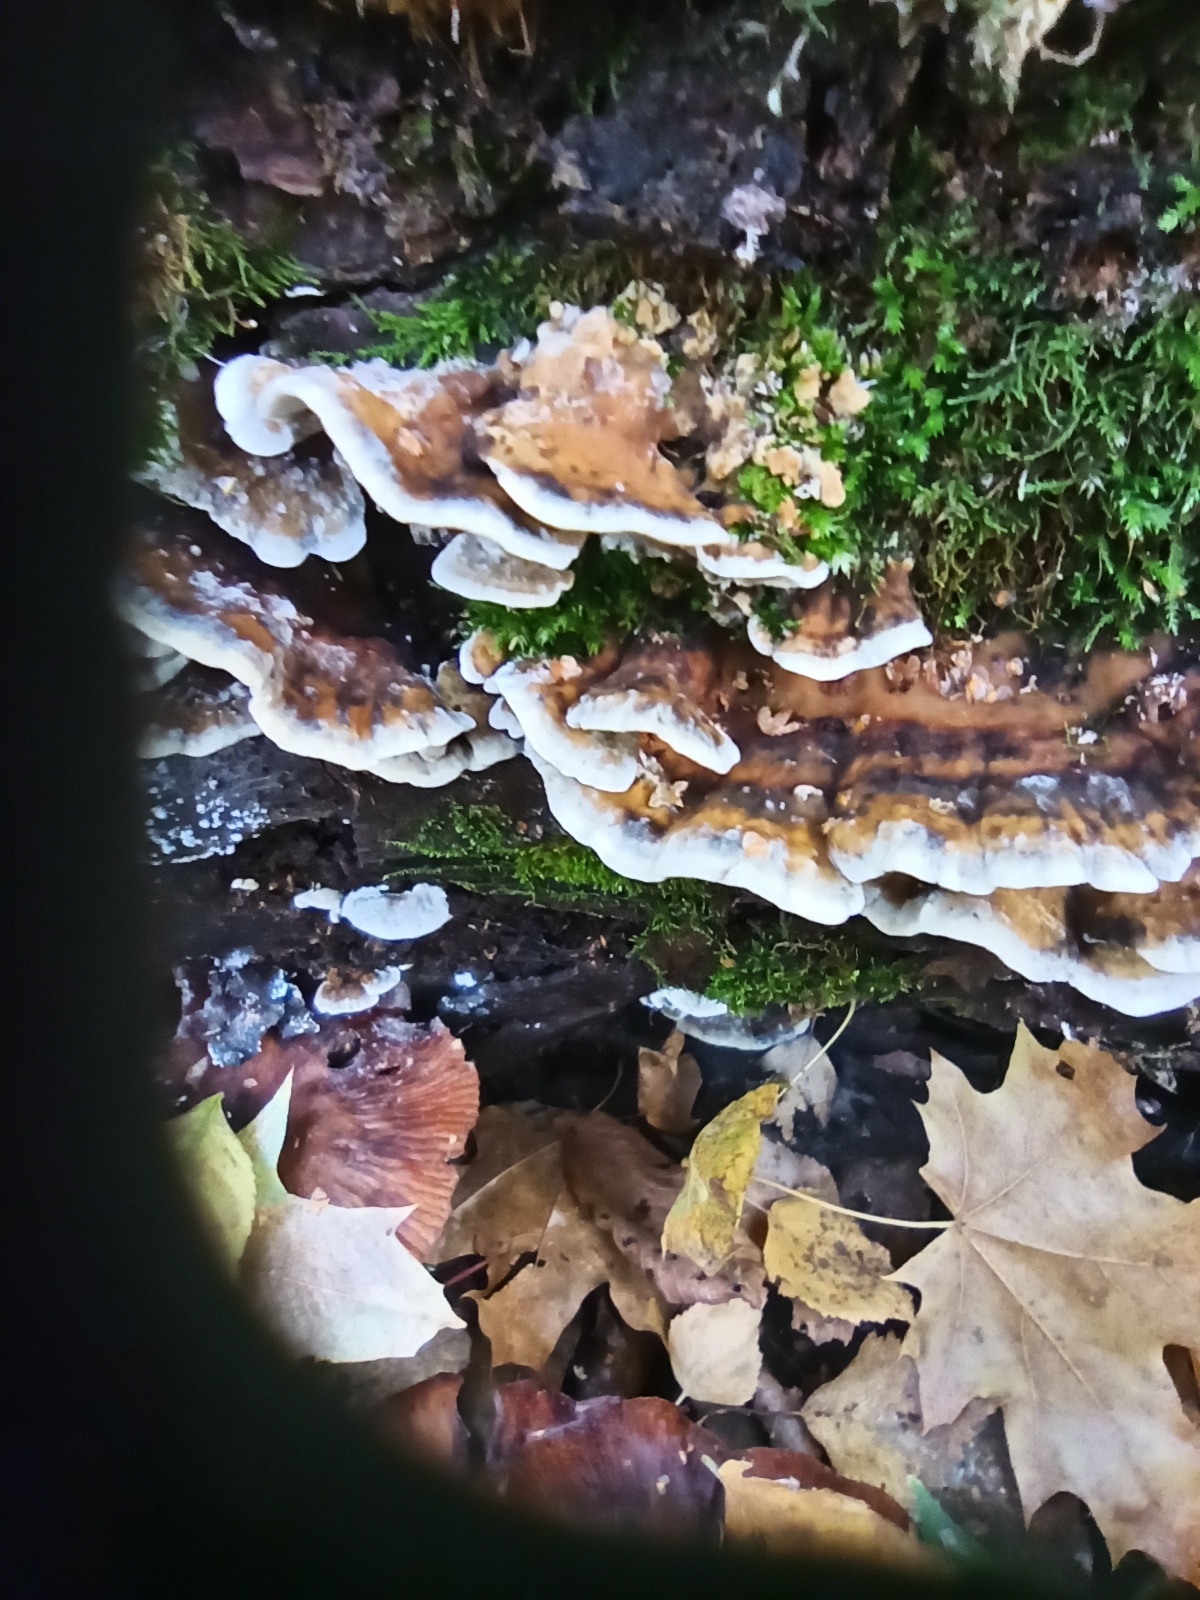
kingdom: Fungi
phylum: Basidiomycota
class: Agaricomycetes
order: Polyporales
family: Phanerochaetaceae
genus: Bjerkandera
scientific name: Bjerkandera adusta
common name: Smoky bracket
